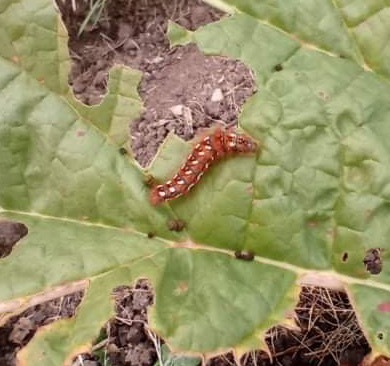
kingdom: Animalia
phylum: Arthropoda
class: Insecta
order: Lepidoptera
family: Noctuidae
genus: Acronicta
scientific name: Acronicta rumicis
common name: Knot grass
